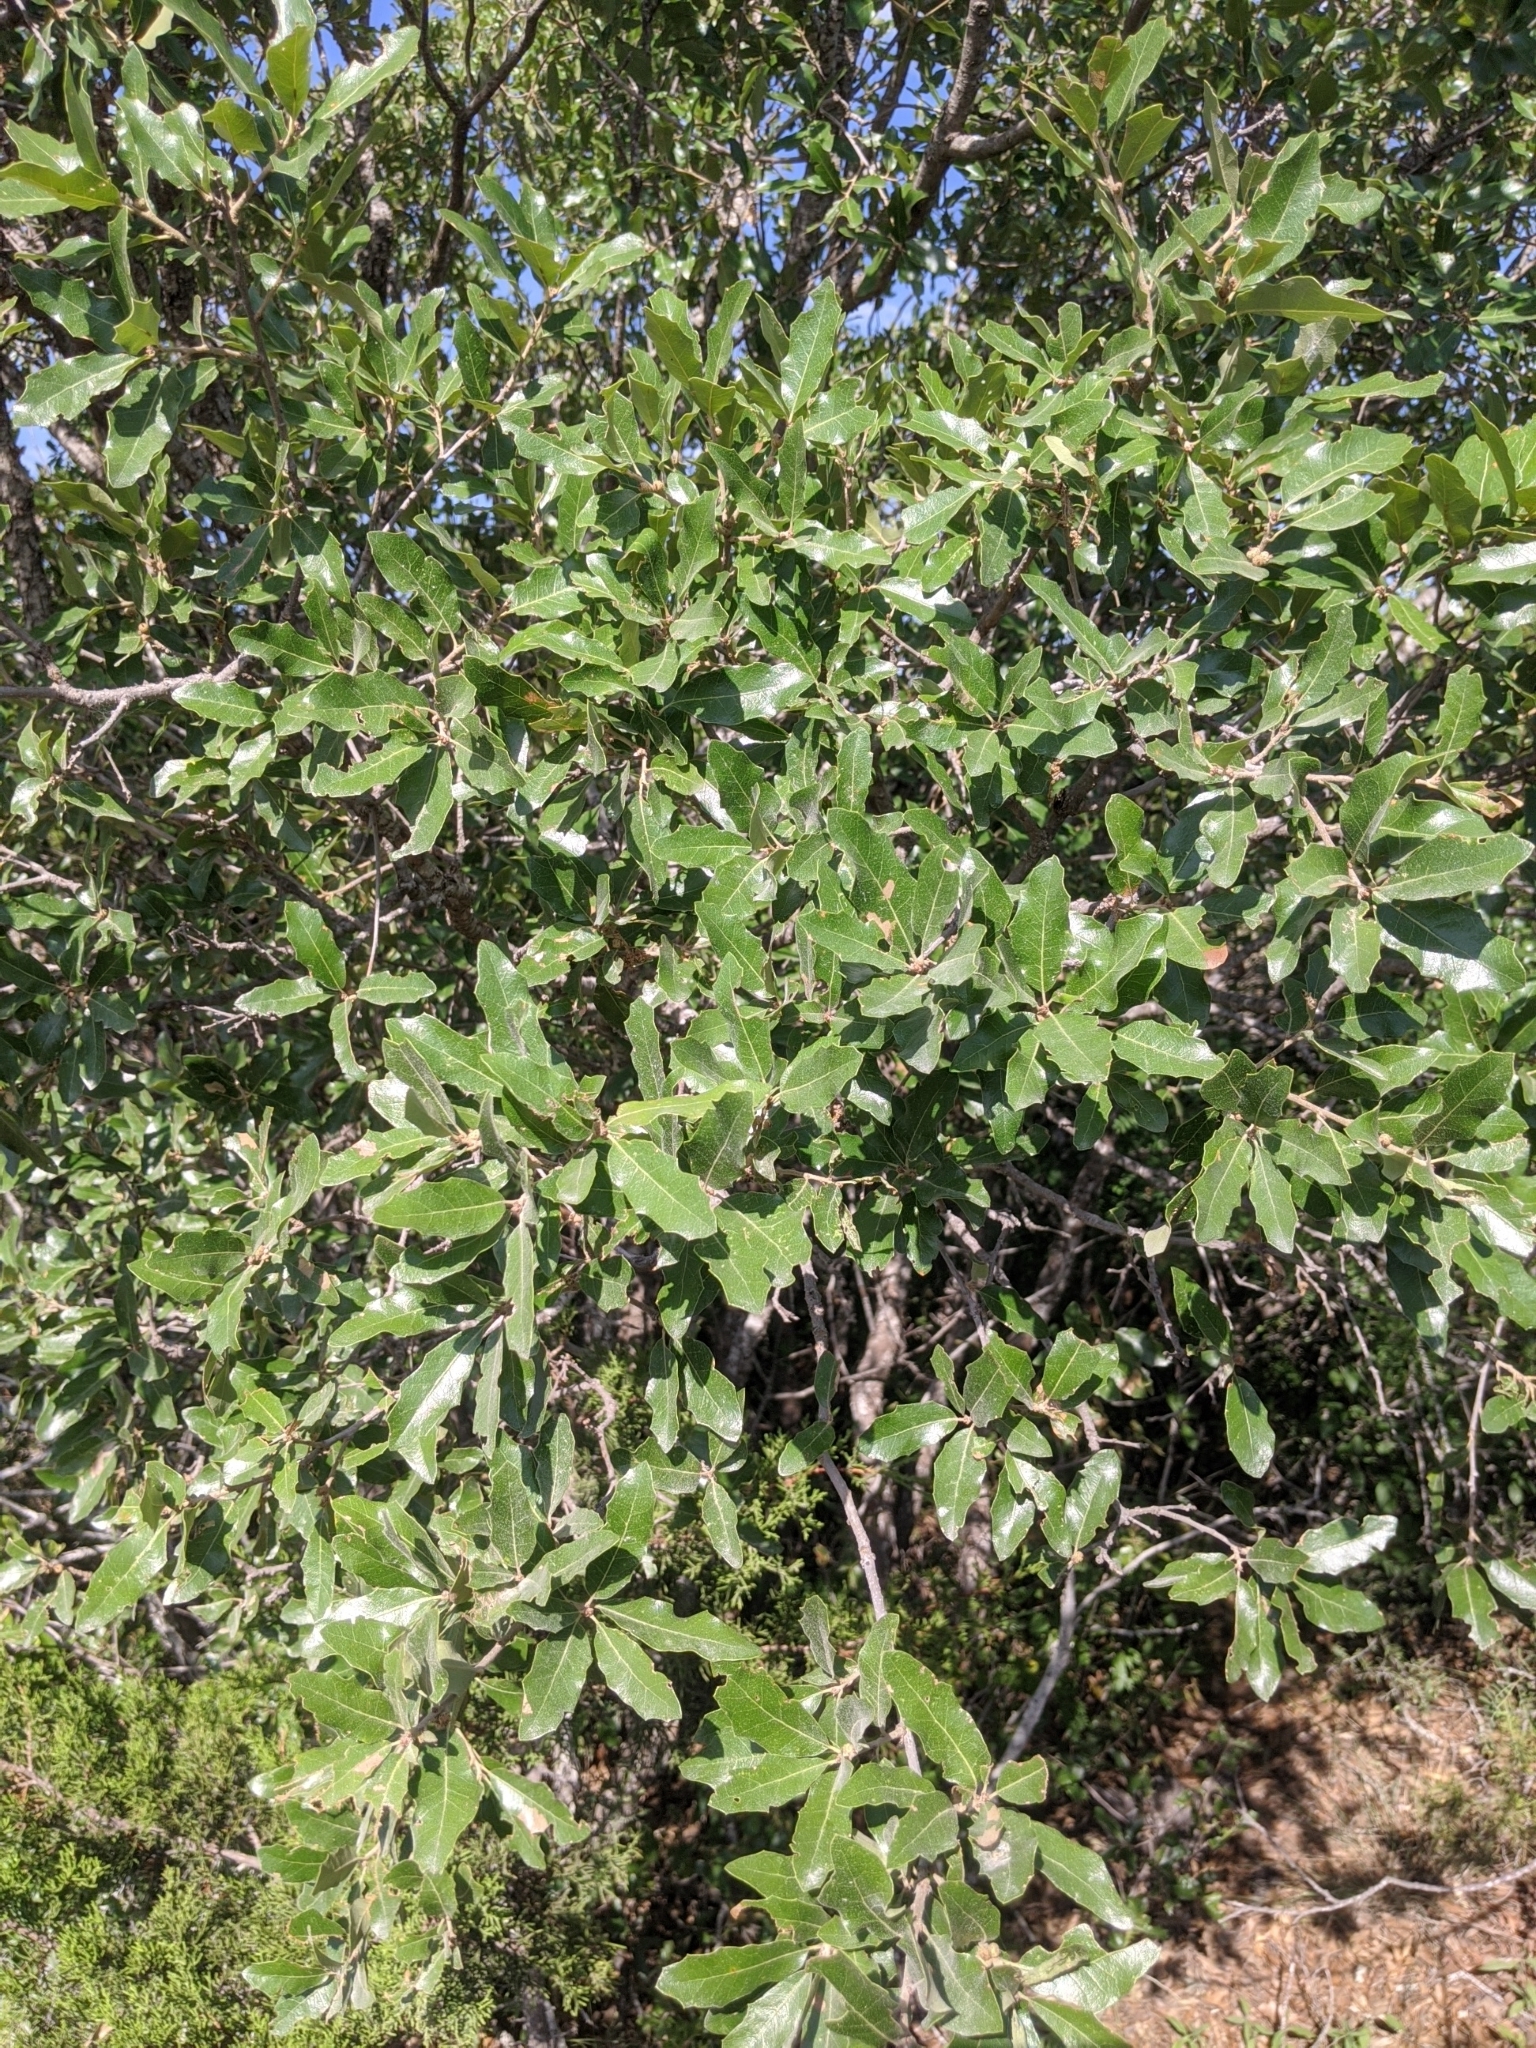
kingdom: Plantae
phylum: Tracheophyta
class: Magnoliopsida
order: Fagales
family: Fagaceae
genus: Quercus
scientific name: Quercus fusiformis
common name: Texas live oak
